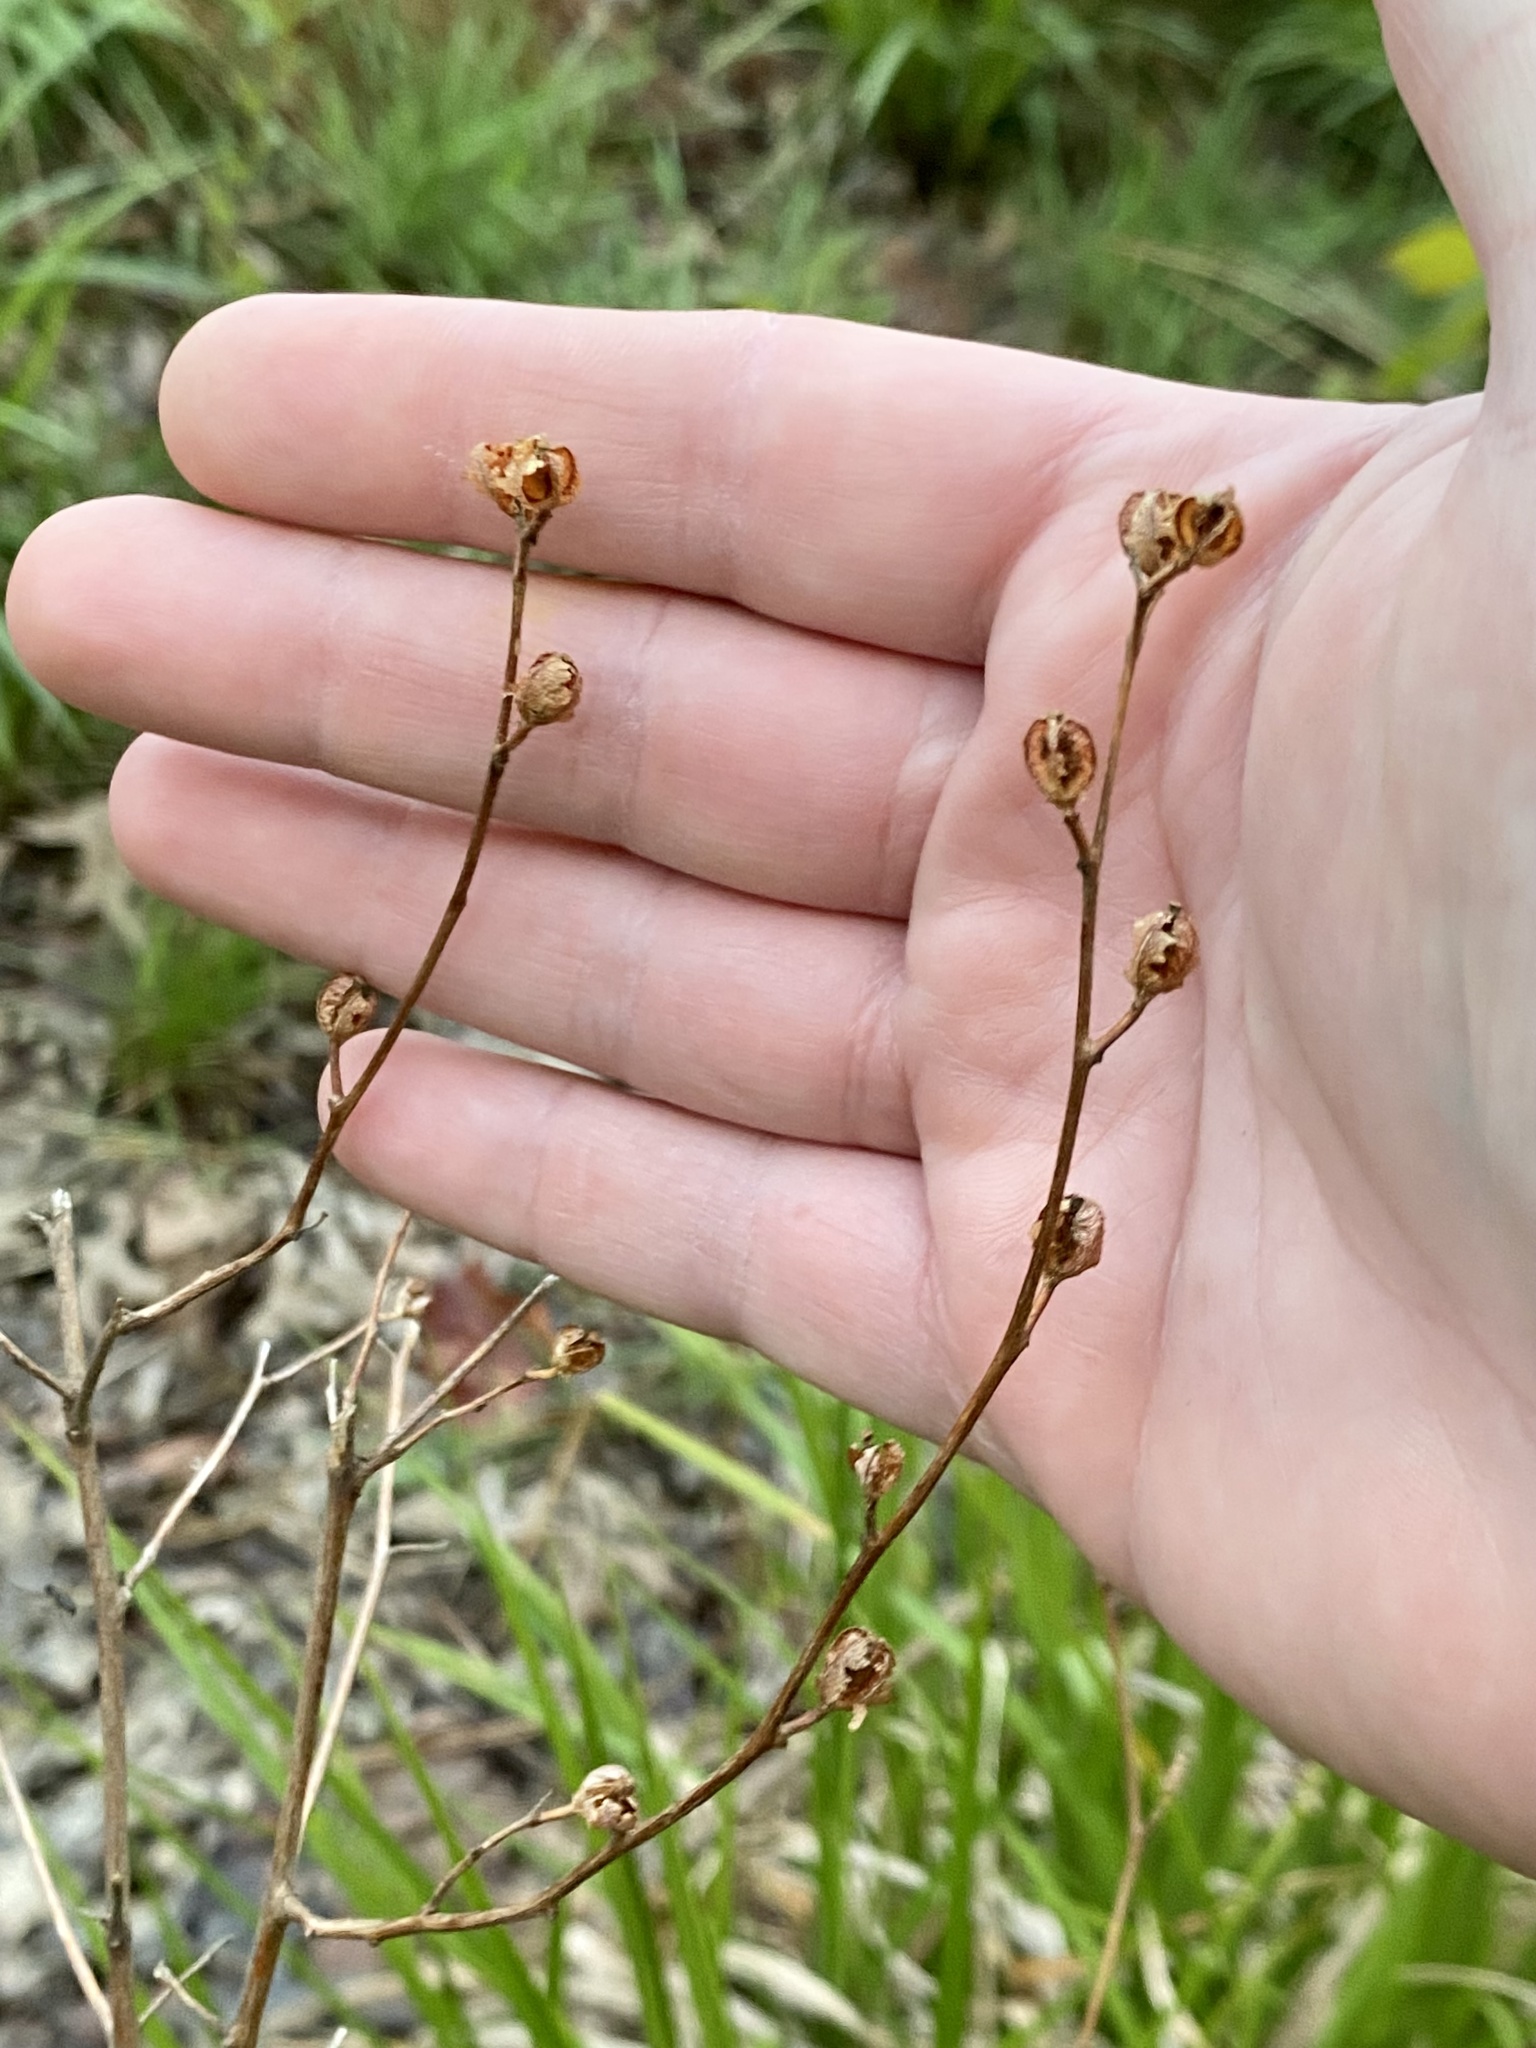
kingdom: Plantae
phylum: Tracheophyta
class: Magnoliopsida
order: Myrtales
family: Onagraceae
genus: Ludwigia
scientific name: Ludwigia alternifolia
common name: Rattlebox
